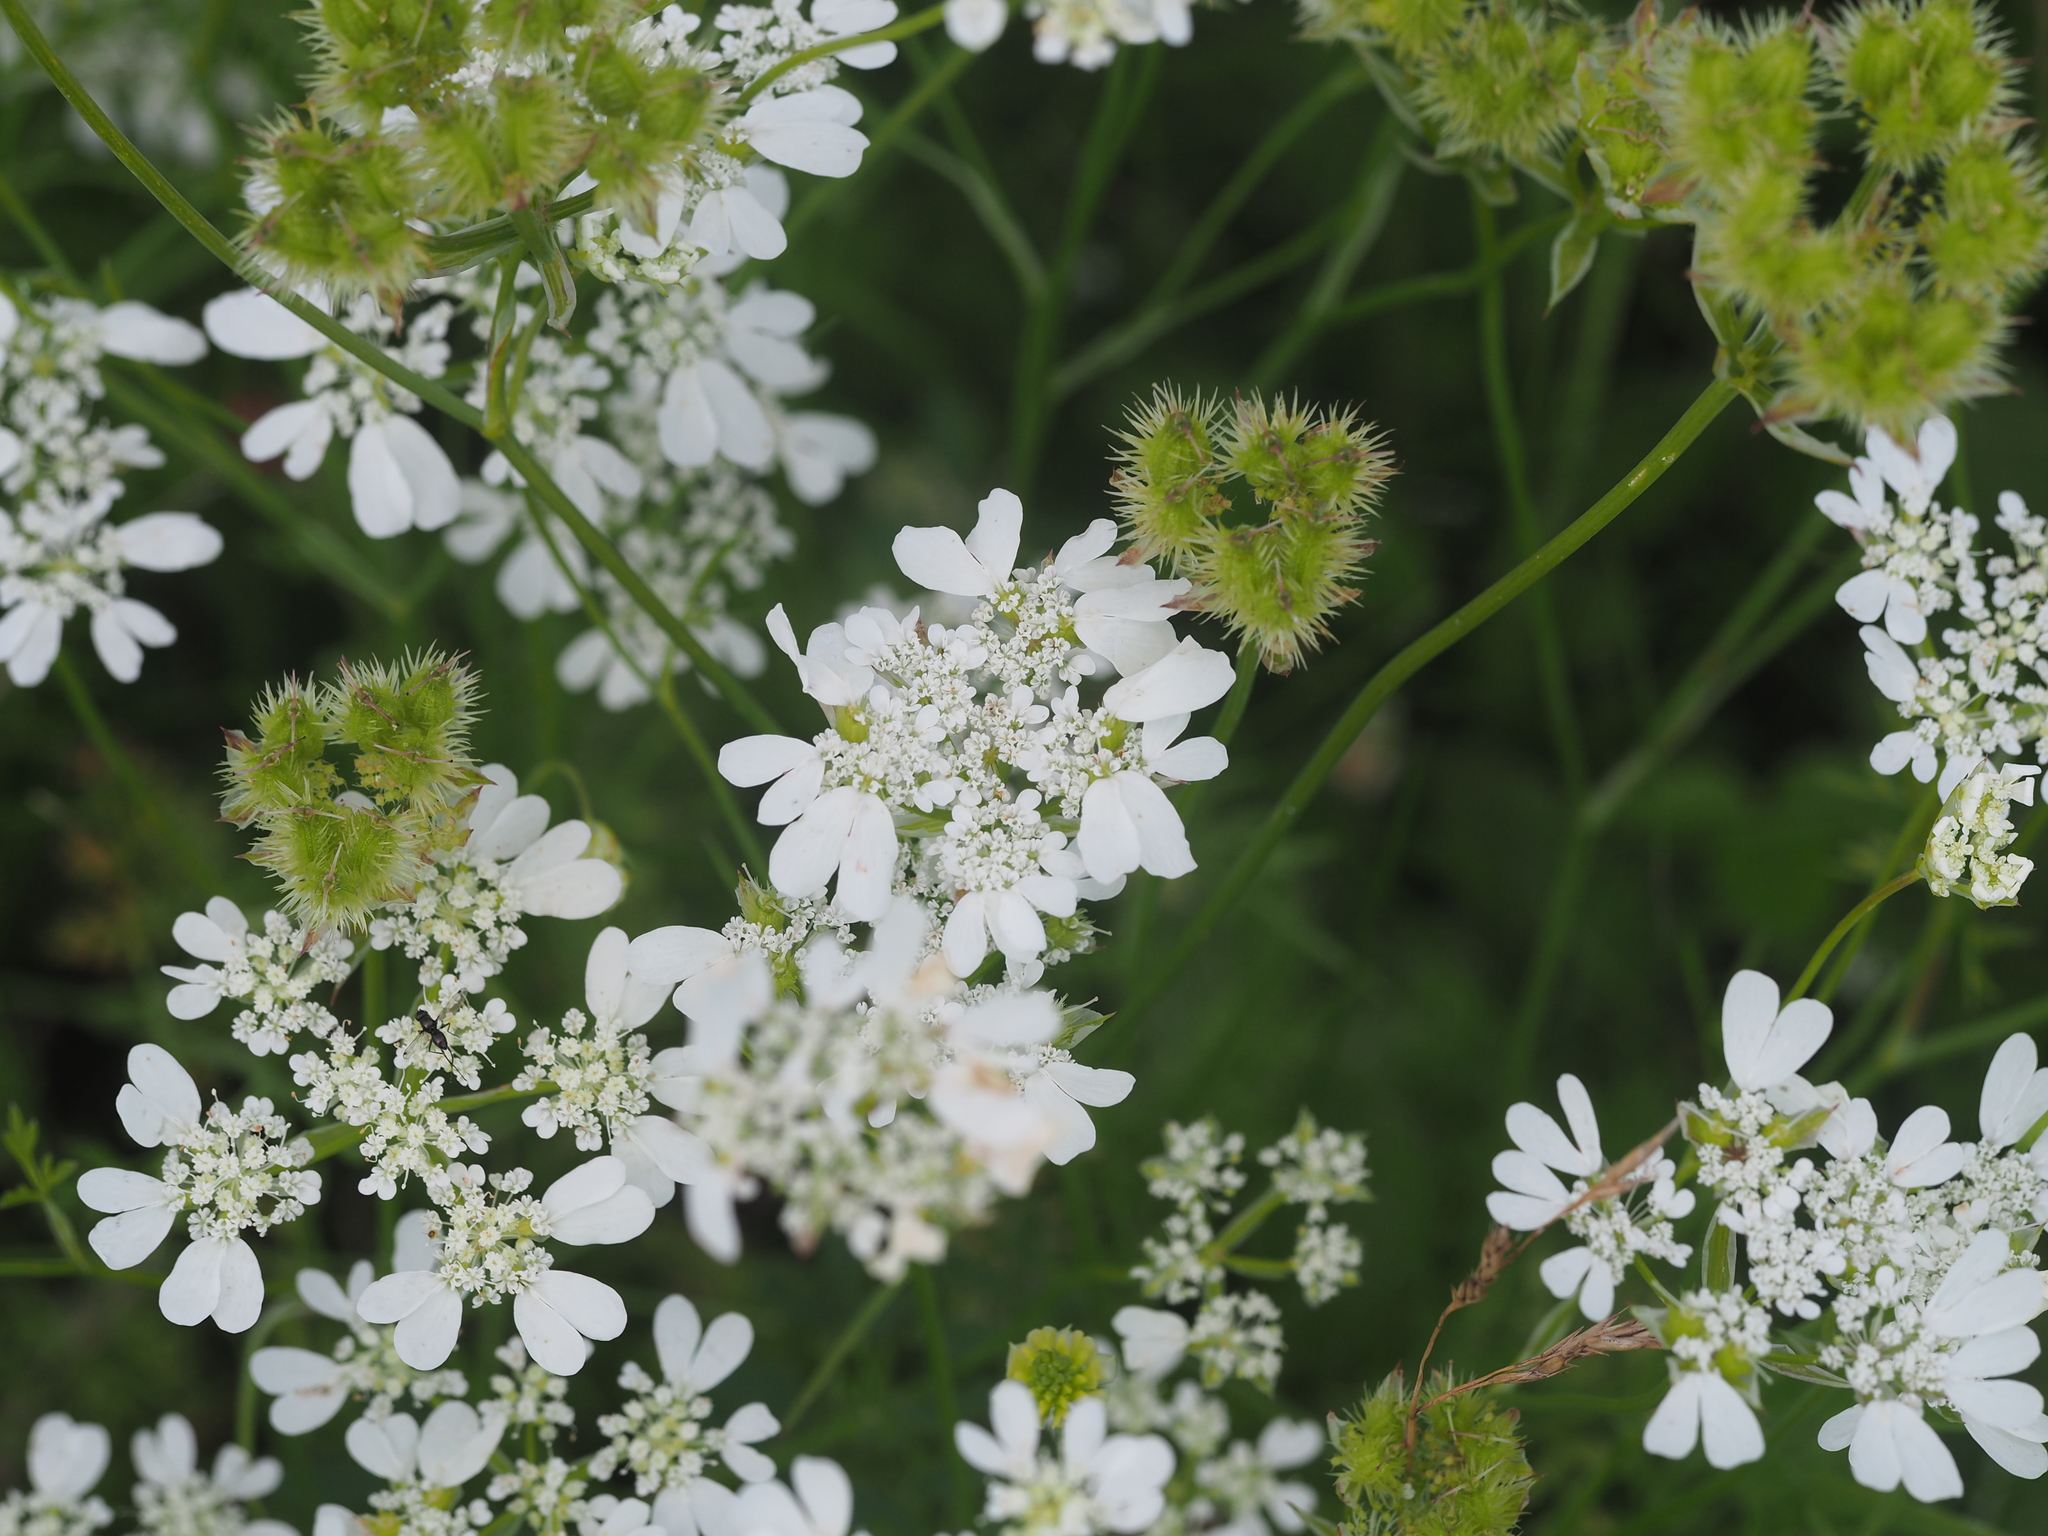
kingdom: Plantae
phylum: Tracheophyta
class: Magnoliopsida
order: Apiales
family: Apiaceae
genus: Orlaya
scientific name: Orlaya grandiflora
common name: White lace flower
